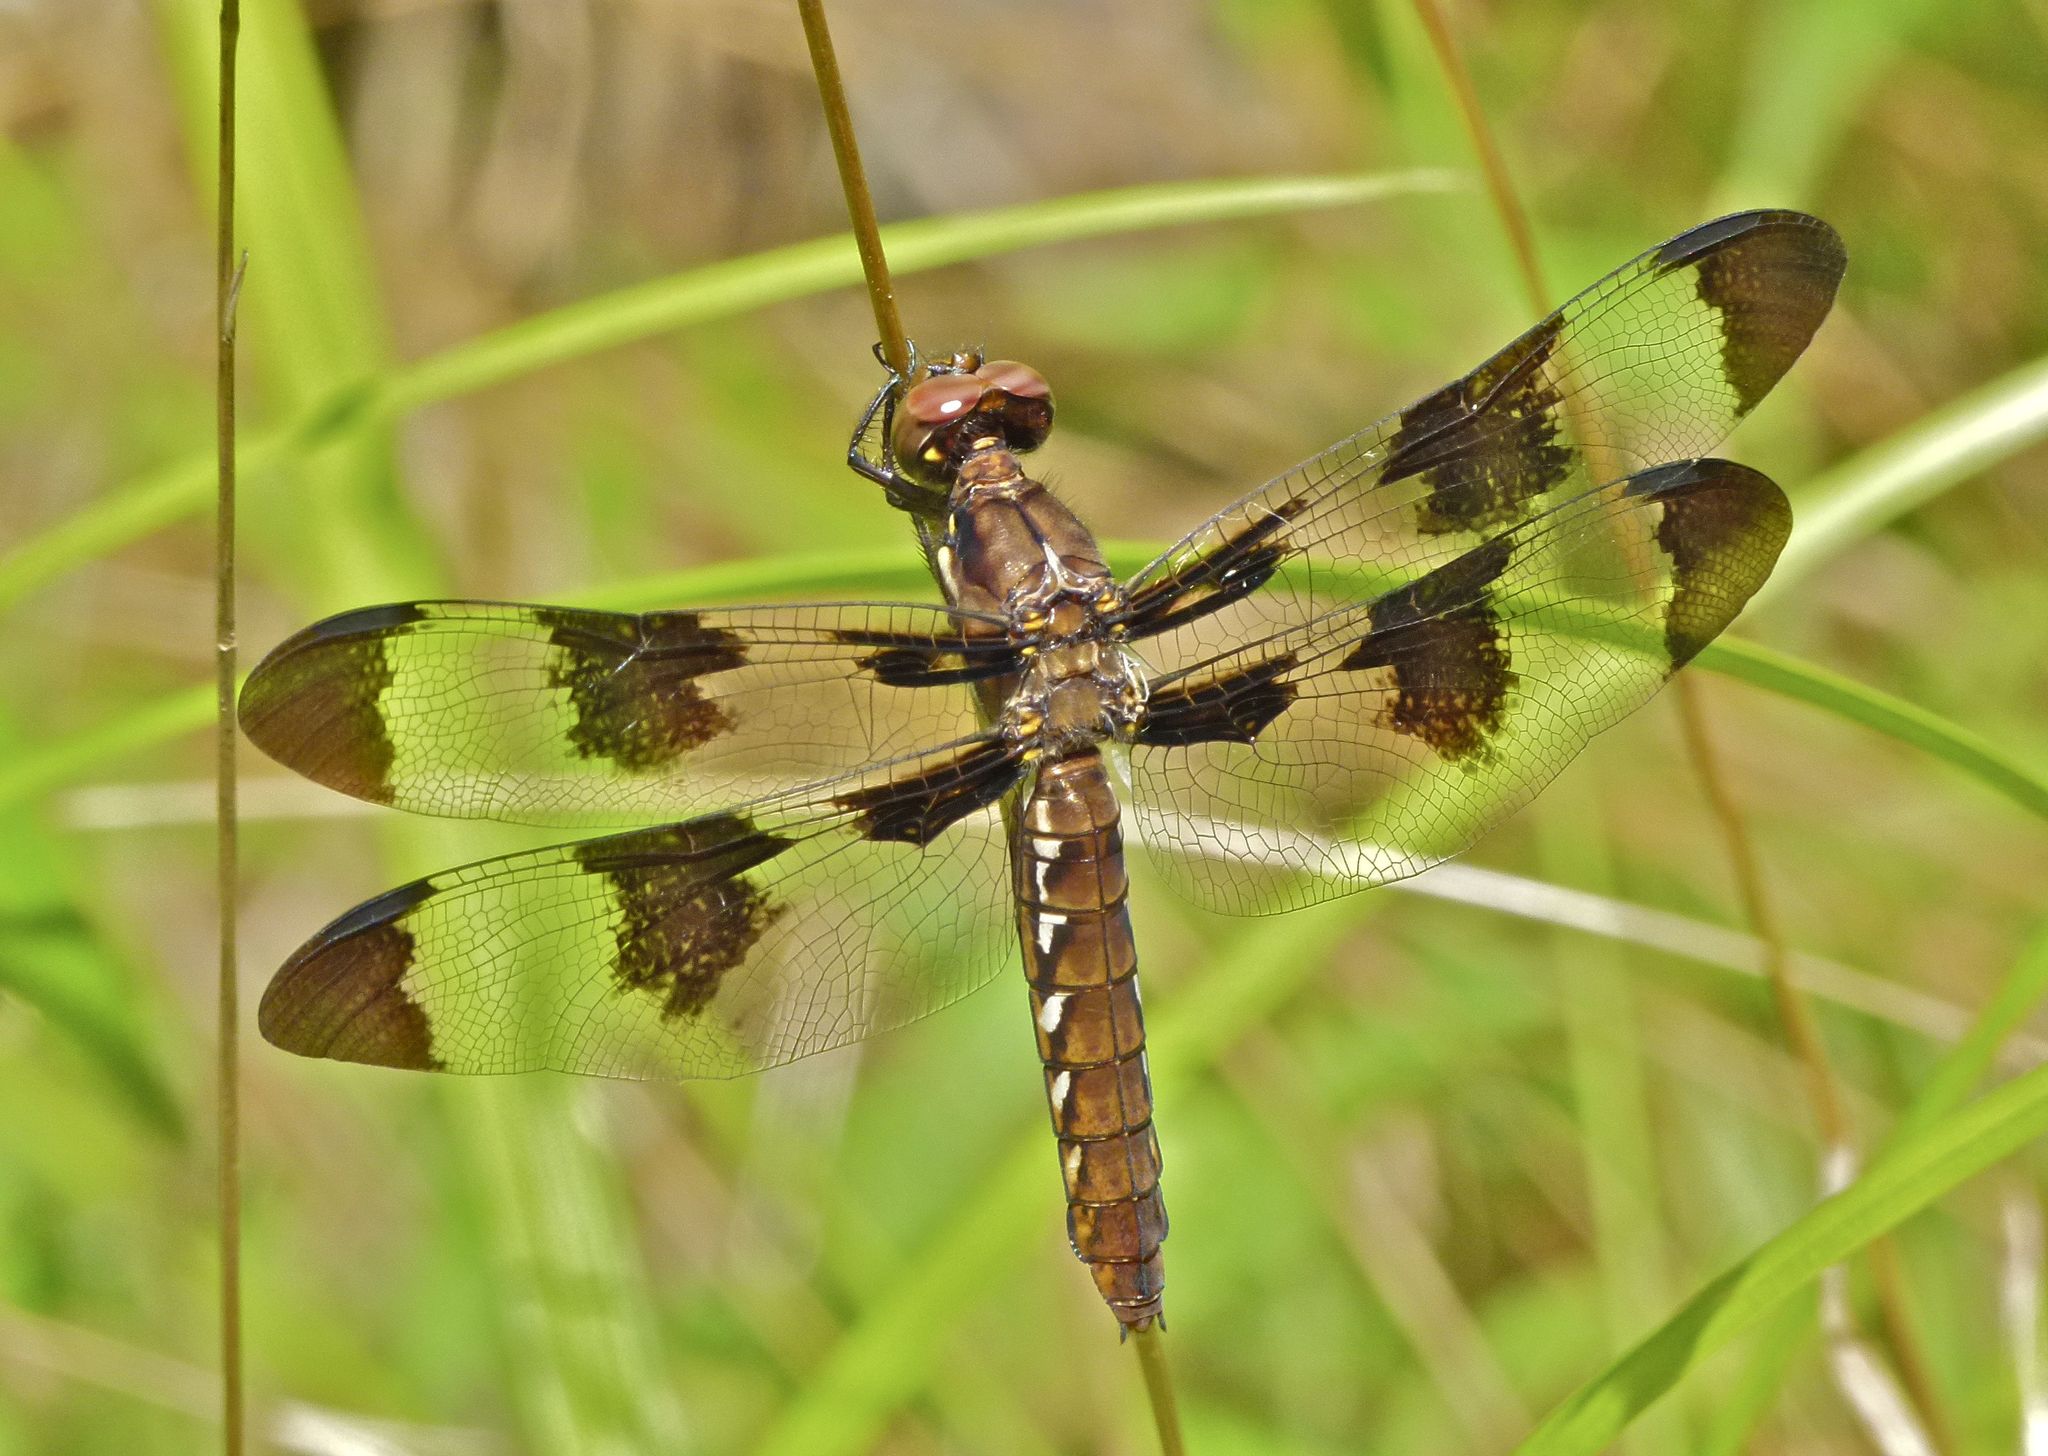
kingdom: Animalia
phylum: Arthropoda
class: Insecta
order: Odonata
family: Libellulidae
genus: Plathemis
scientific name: Plathemis lydia
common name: Common whitetail
